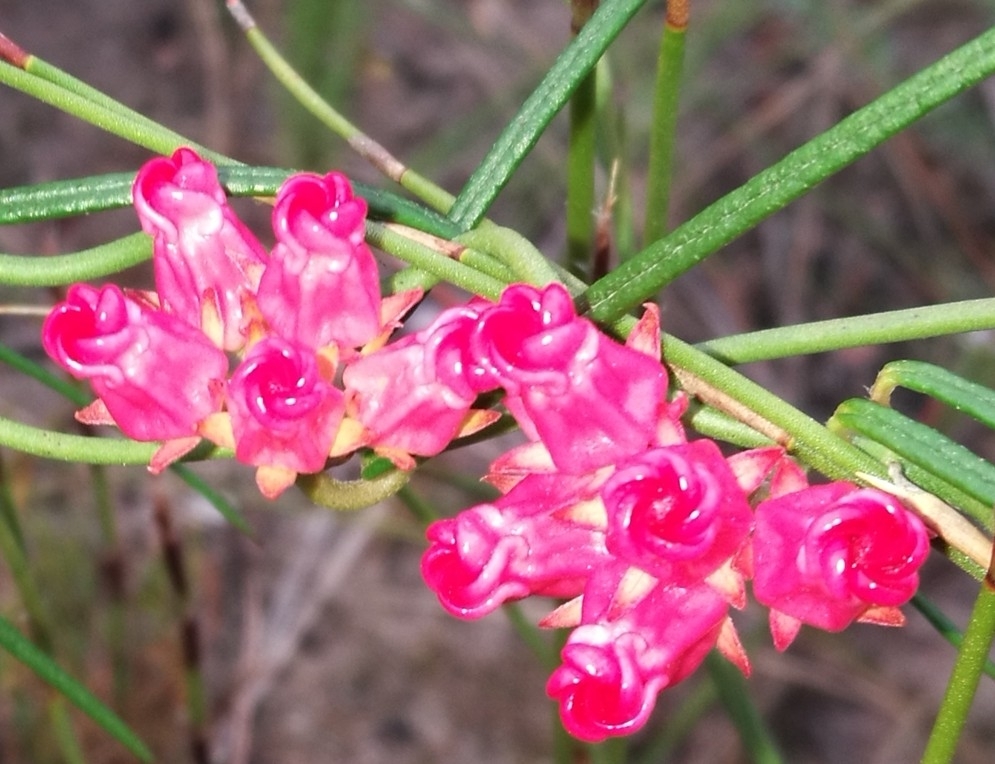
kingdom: Plantae
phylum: Tracheophyta
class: Magnoliopsida
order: Gentianales
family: Apocynaceae
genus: Microloma
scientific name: Microloma tenuifolium
